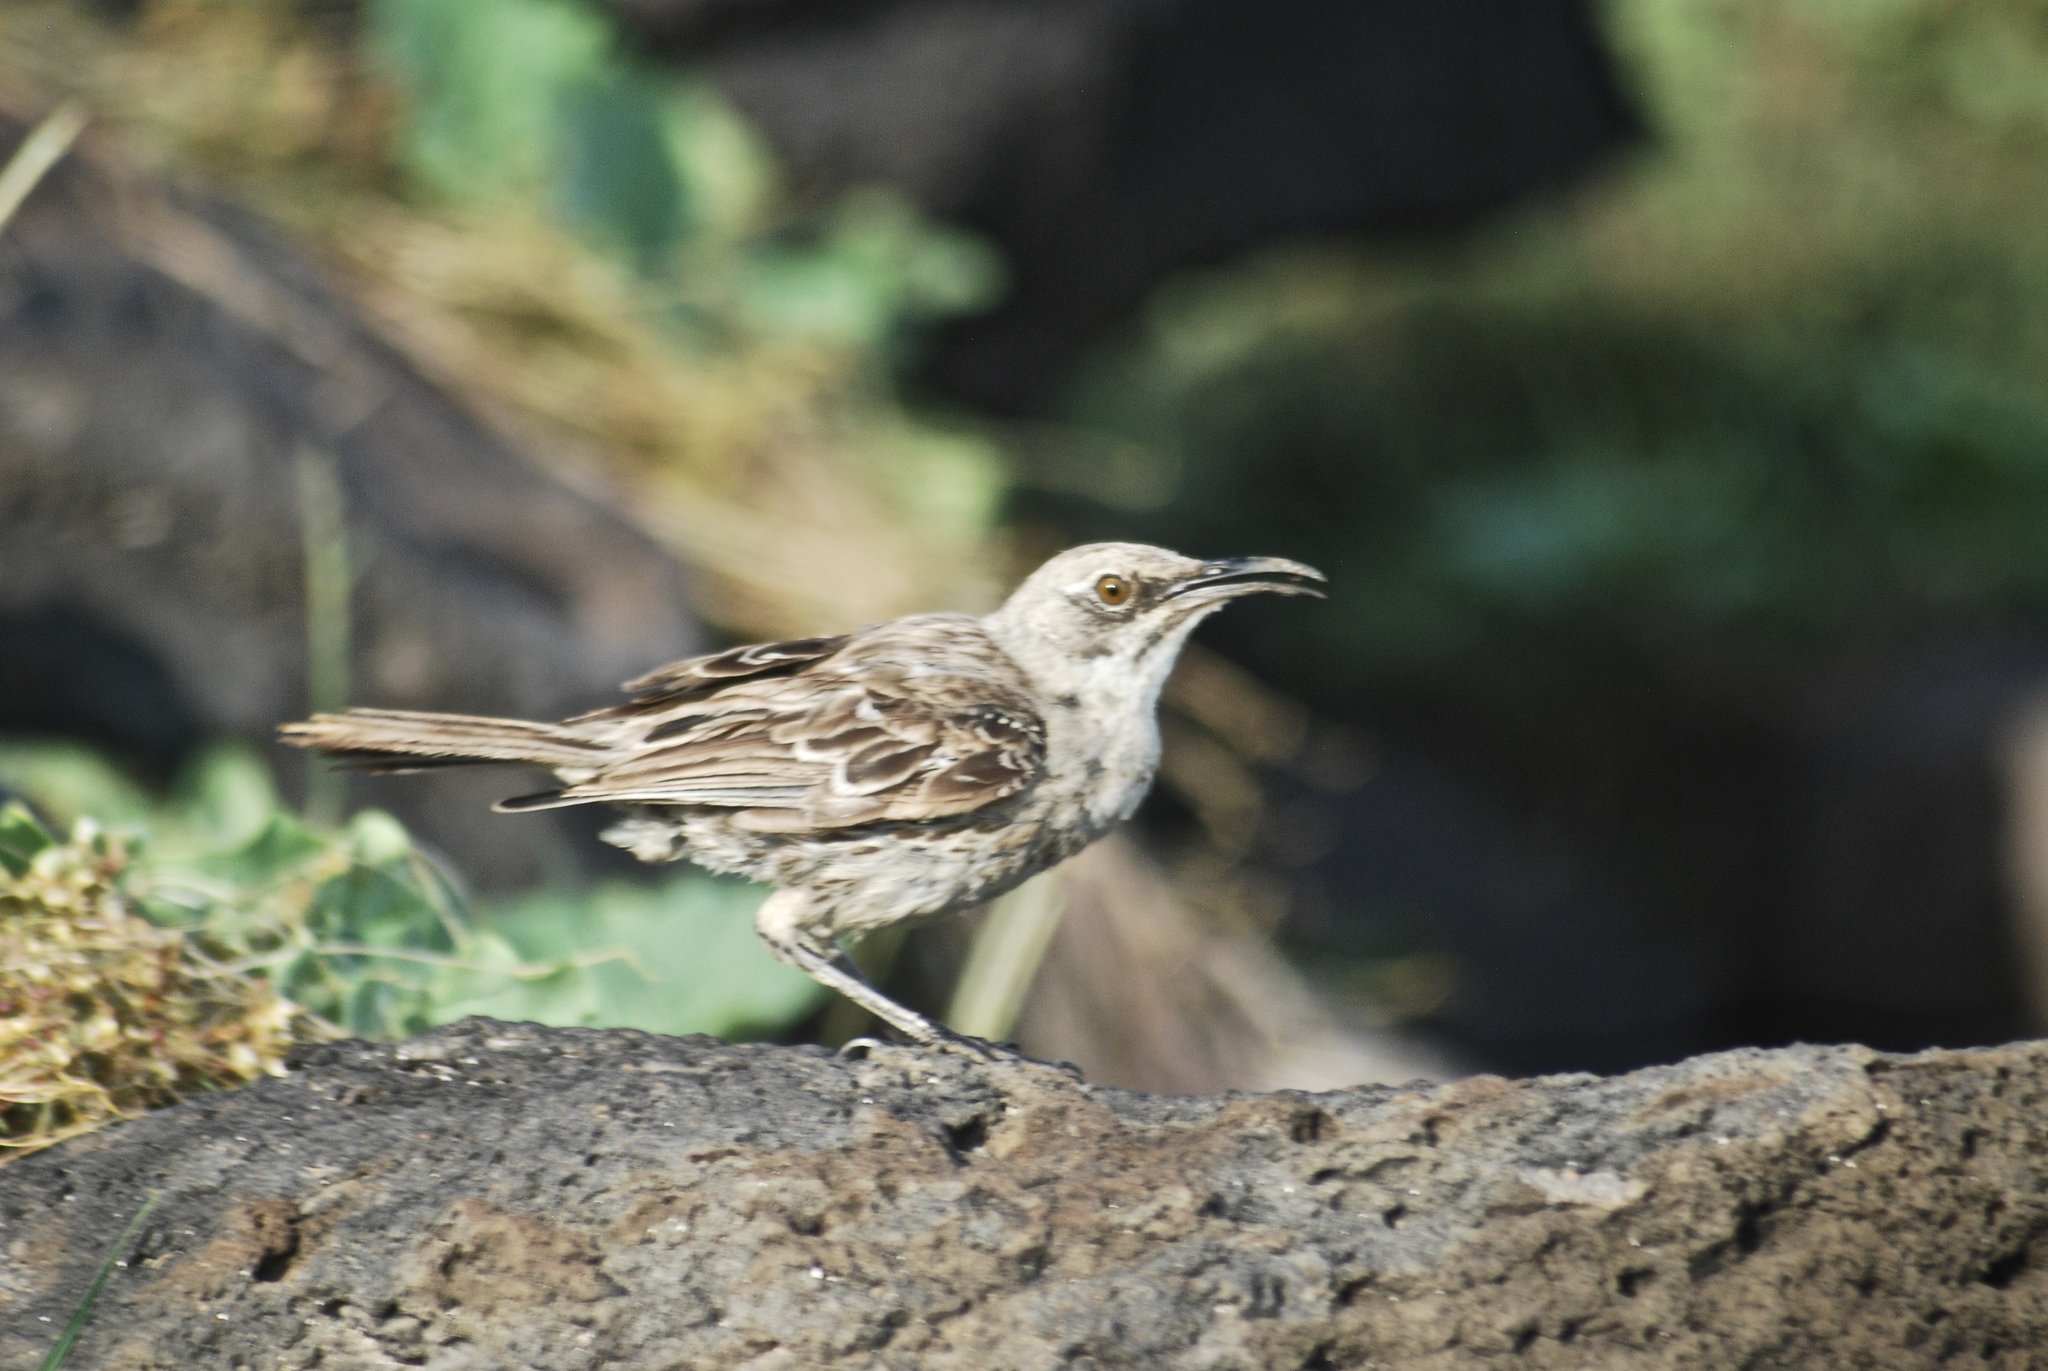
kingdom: Animalia
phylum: Chordata
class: Aves
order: Passeriformes
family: Mimidae
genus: Mimus
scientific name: Mimus macdonaldi
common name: Espanola mockingbird
